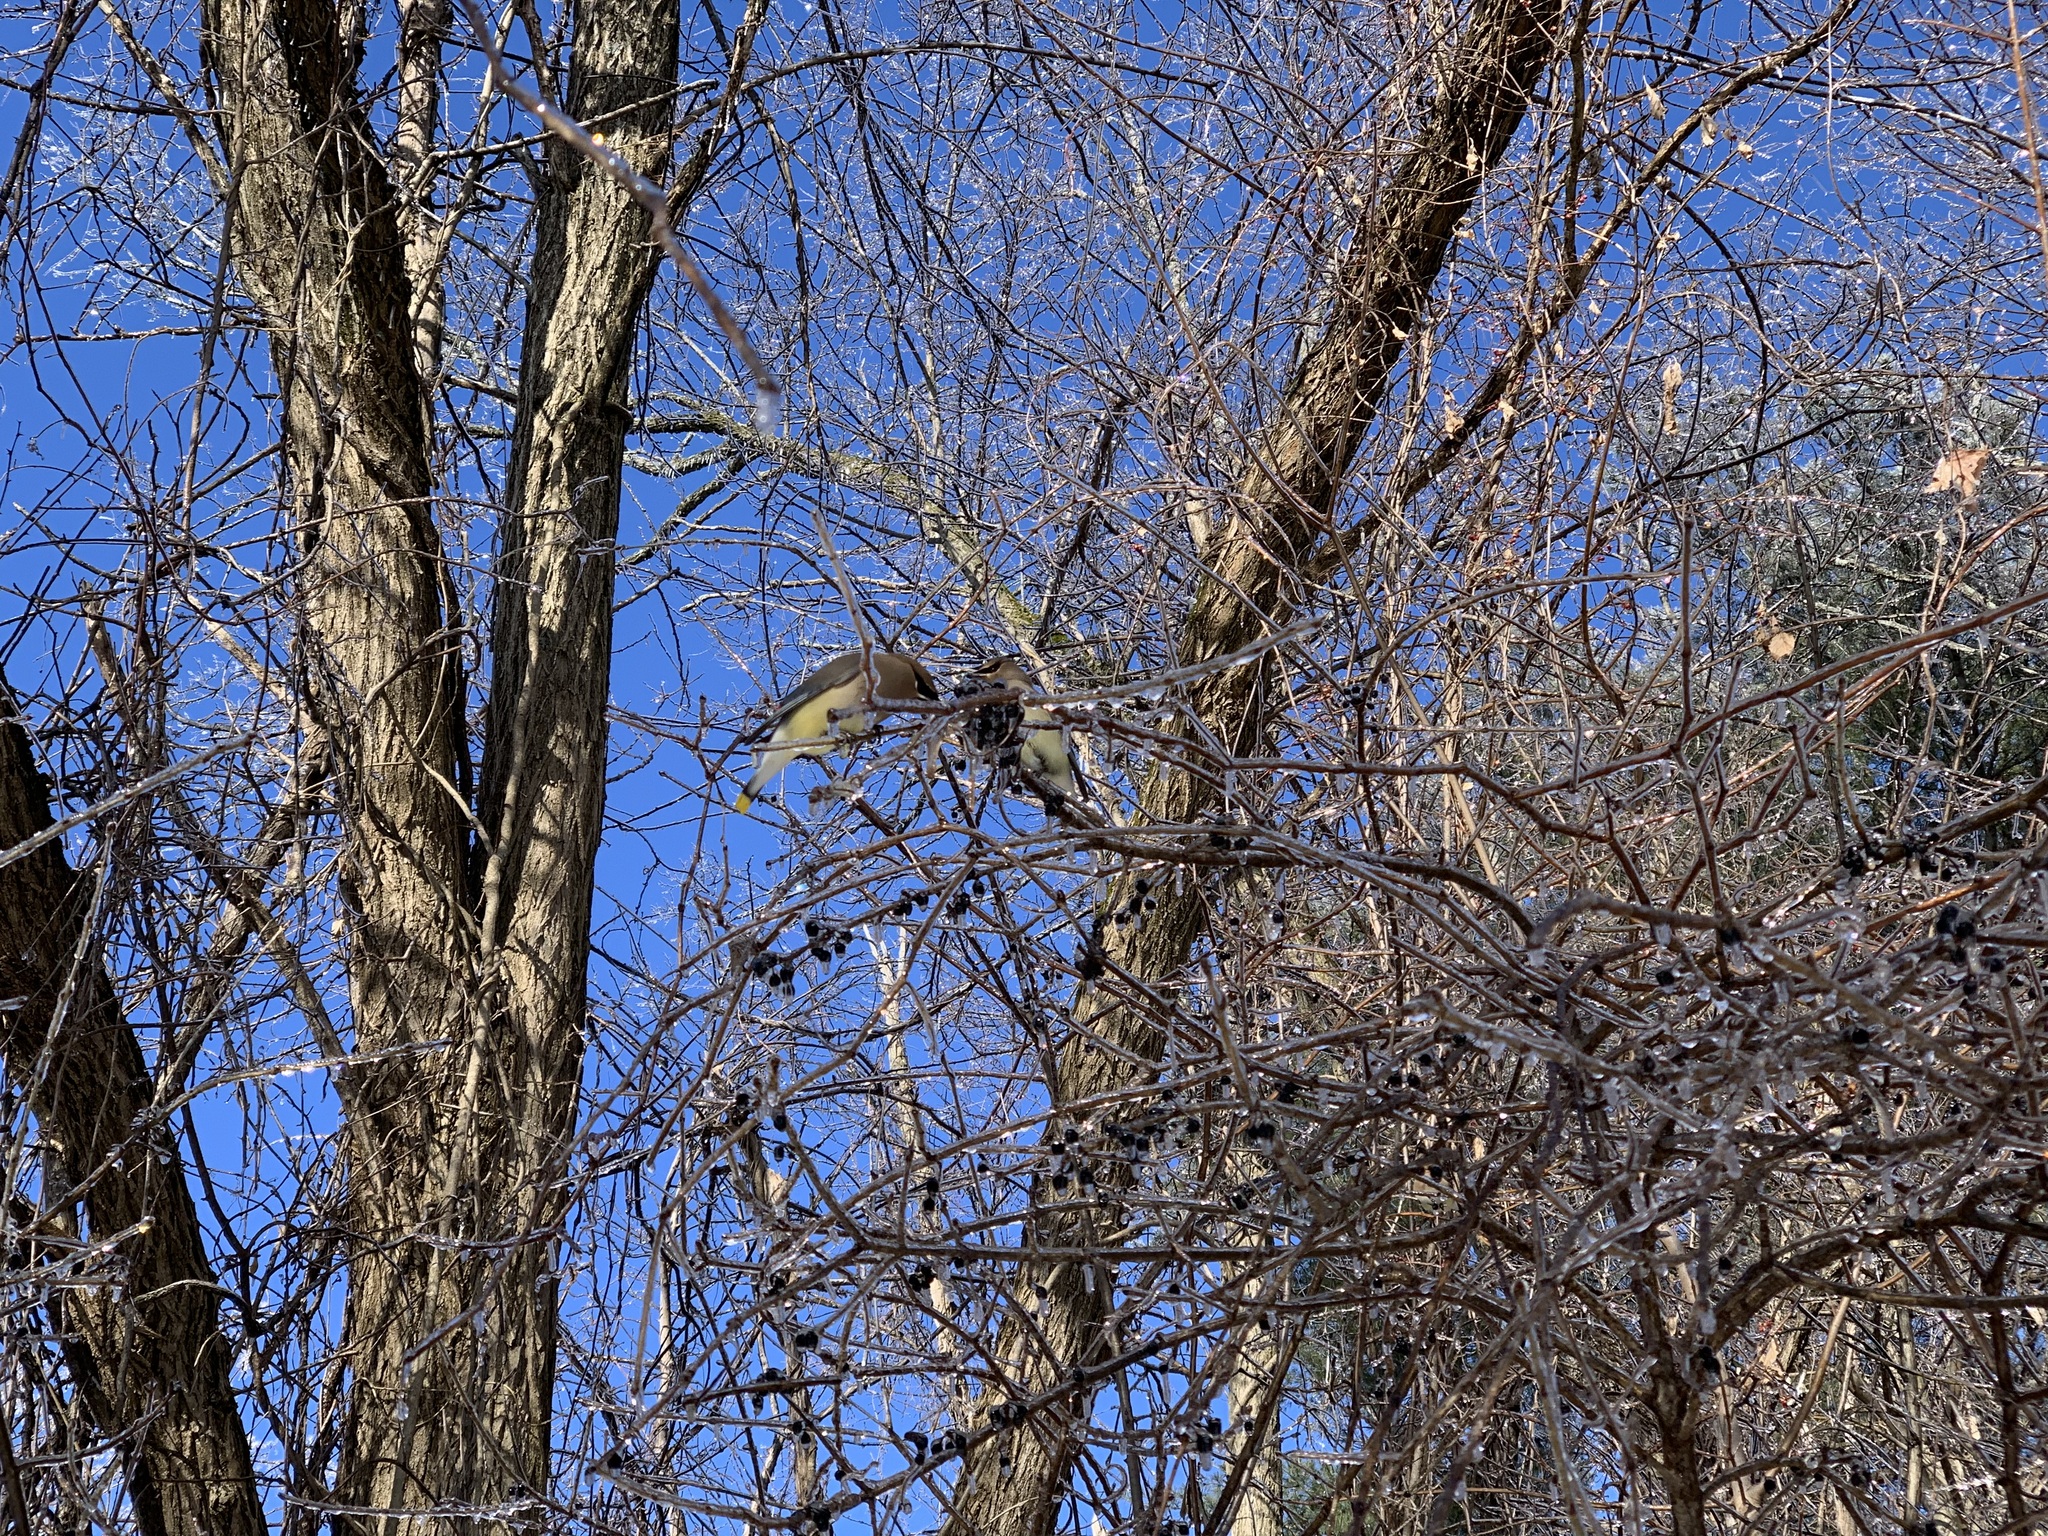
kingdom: Animalia
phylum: Chordata
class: Aves
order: Passeriformes
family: Bombycillidae
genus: Bombycilla
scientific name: Bombycilla cedrorum
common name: Cedar waxwing
